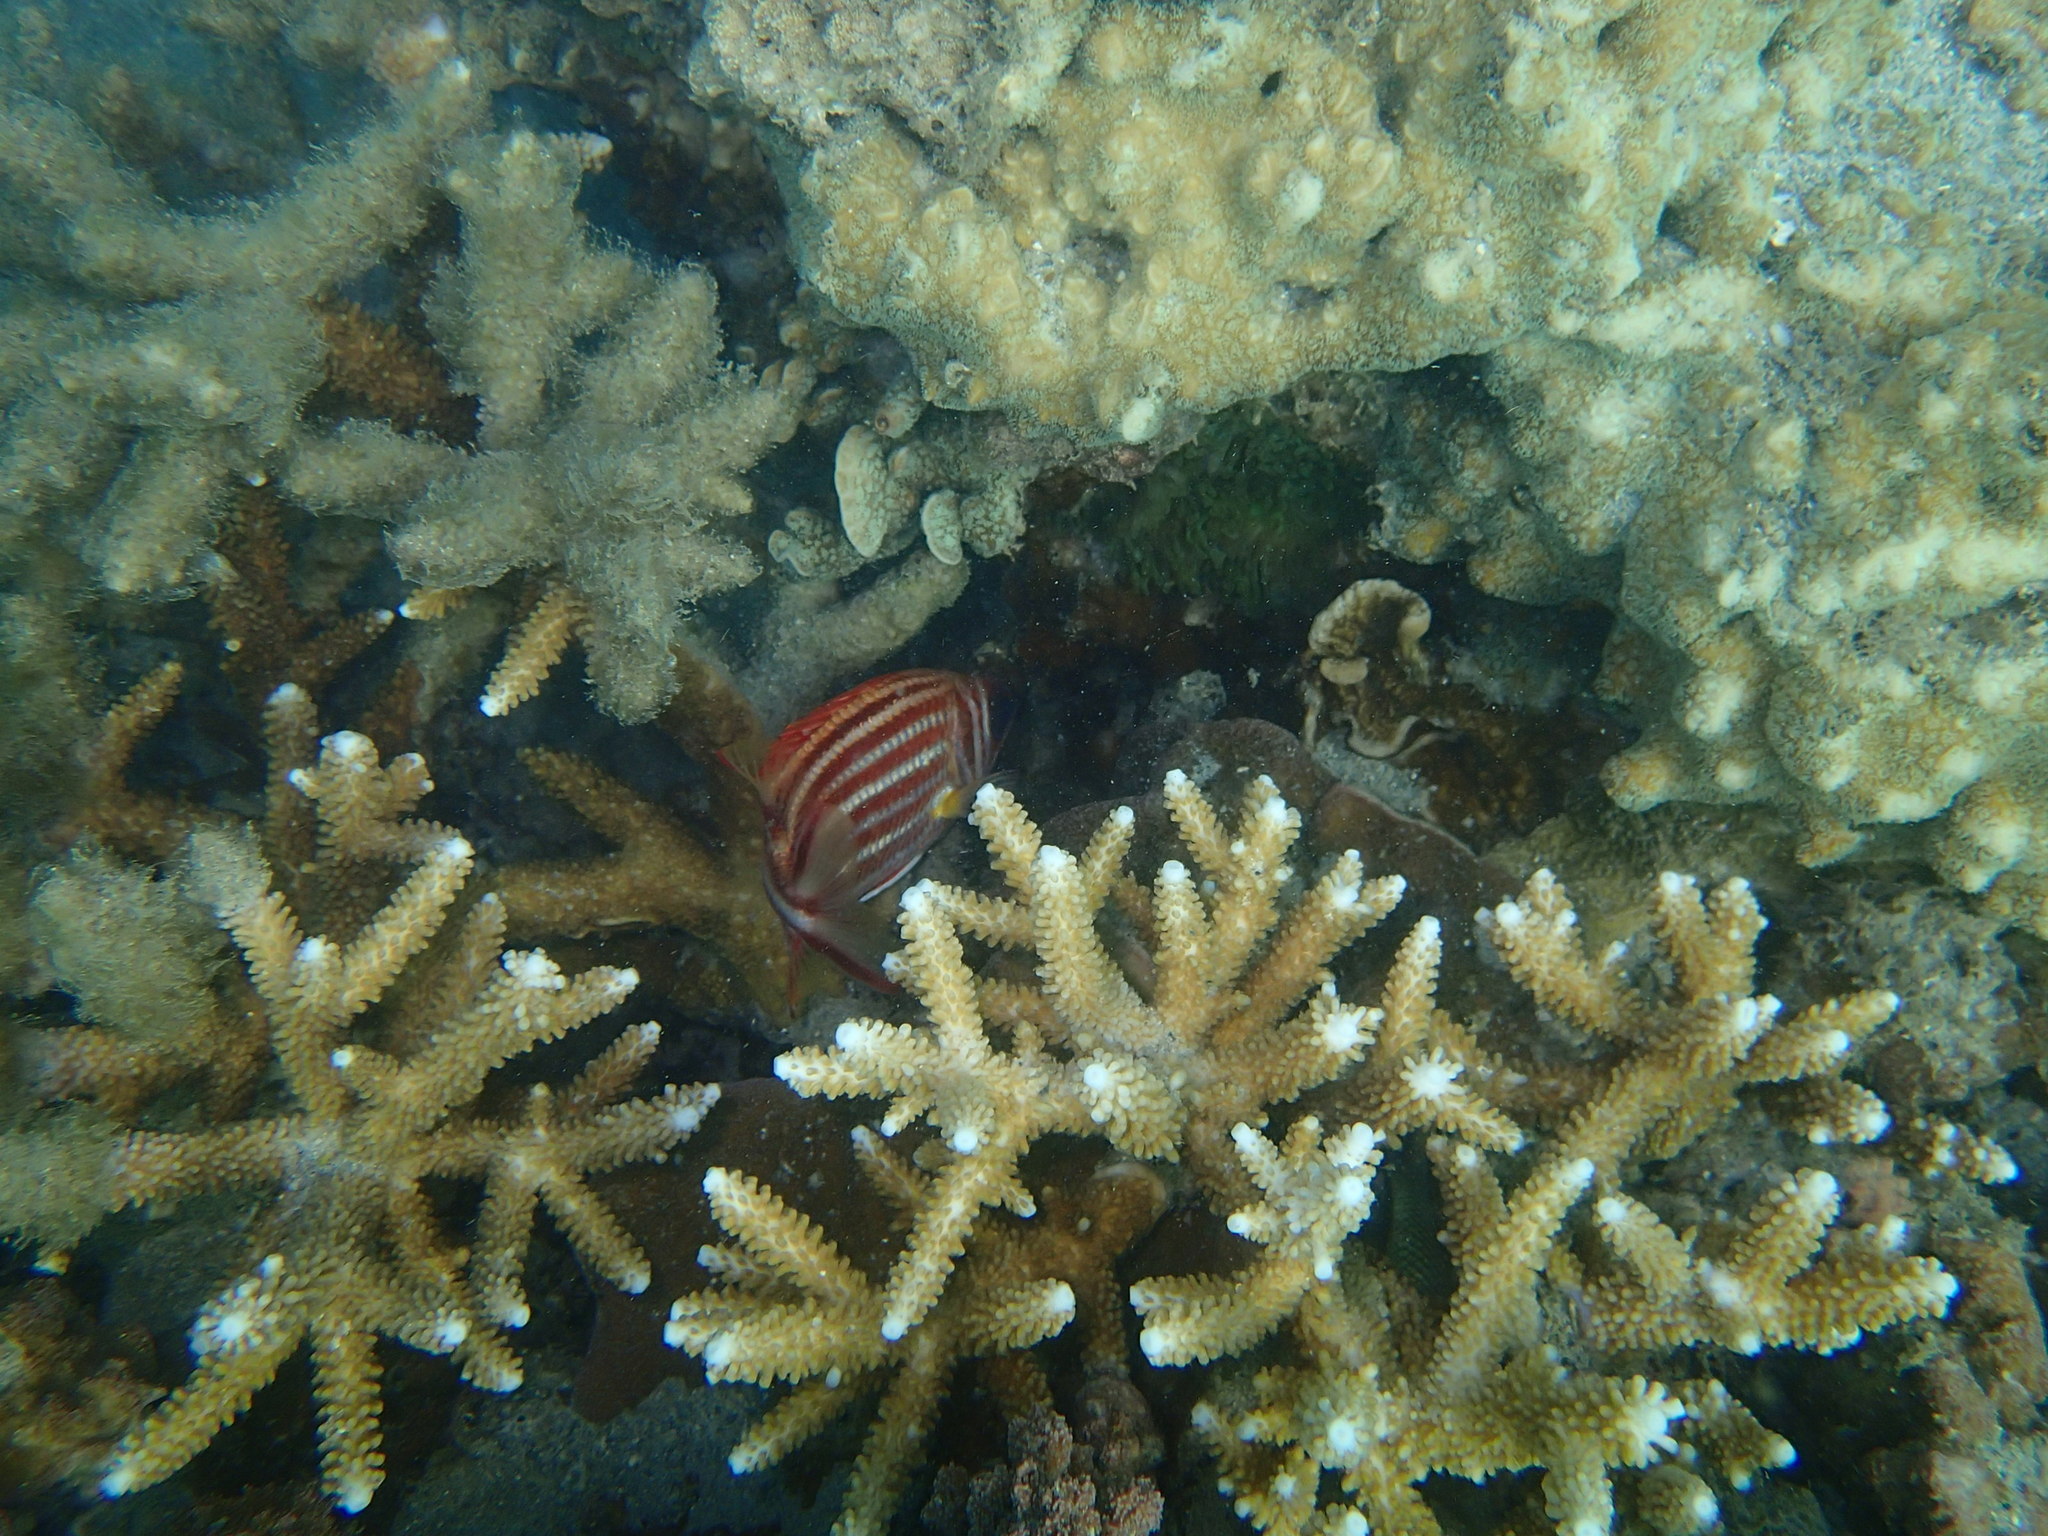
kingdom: Animalia
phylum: Chordata
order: Beryciformes
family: Holocentridae
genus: Sargocentron
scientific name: Sargocentron rubrum
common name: Redcoat
